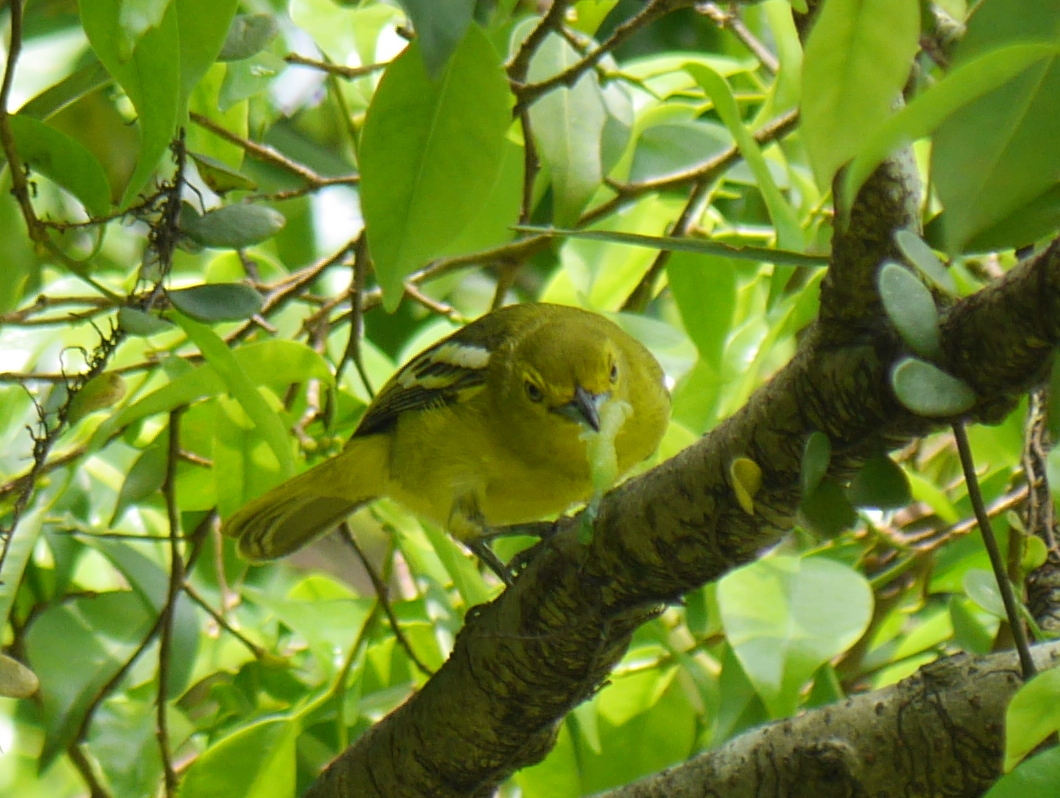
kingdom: Animalia
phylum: Chordata
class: Aves
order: Passeriformes
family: Aegithinidae
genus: Aegithina
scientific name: Aegithina tiphia
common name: Common iora
